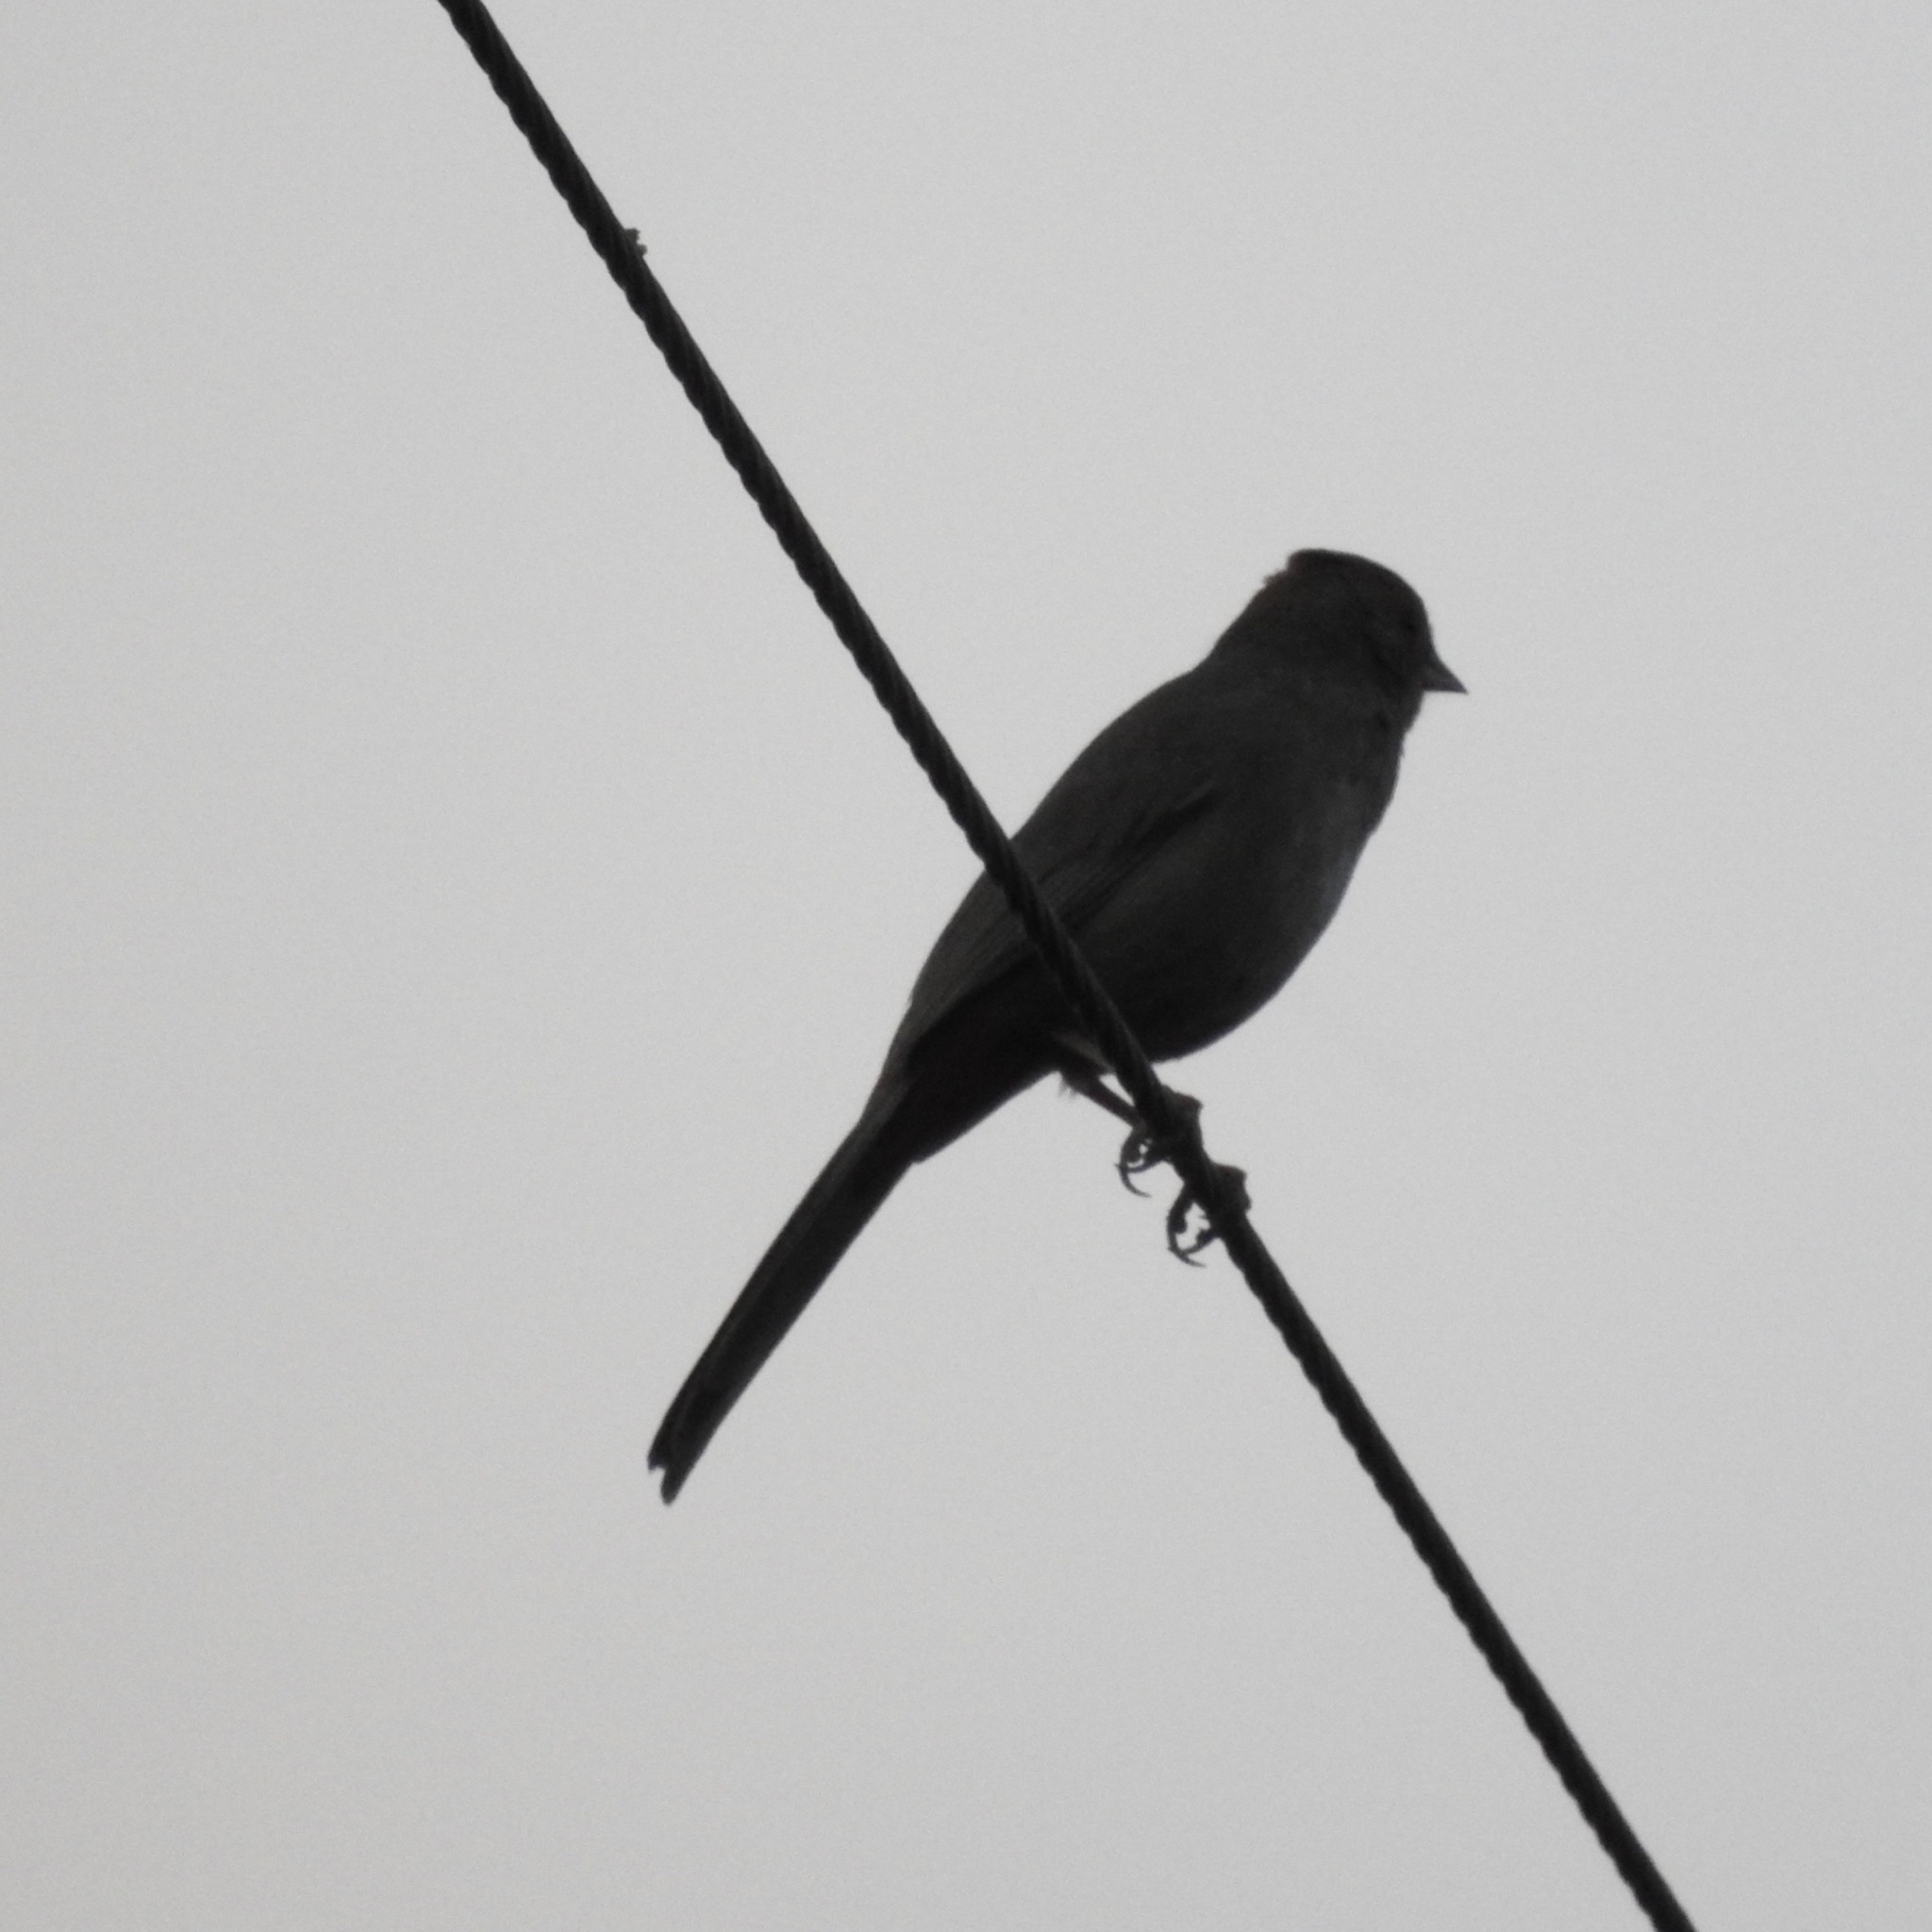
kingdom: Animalia
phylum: Chordata
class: Aves
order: Passeriformes
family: Passerellidae
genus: Melozone
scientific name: Melozone crissalis
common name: California towhee
